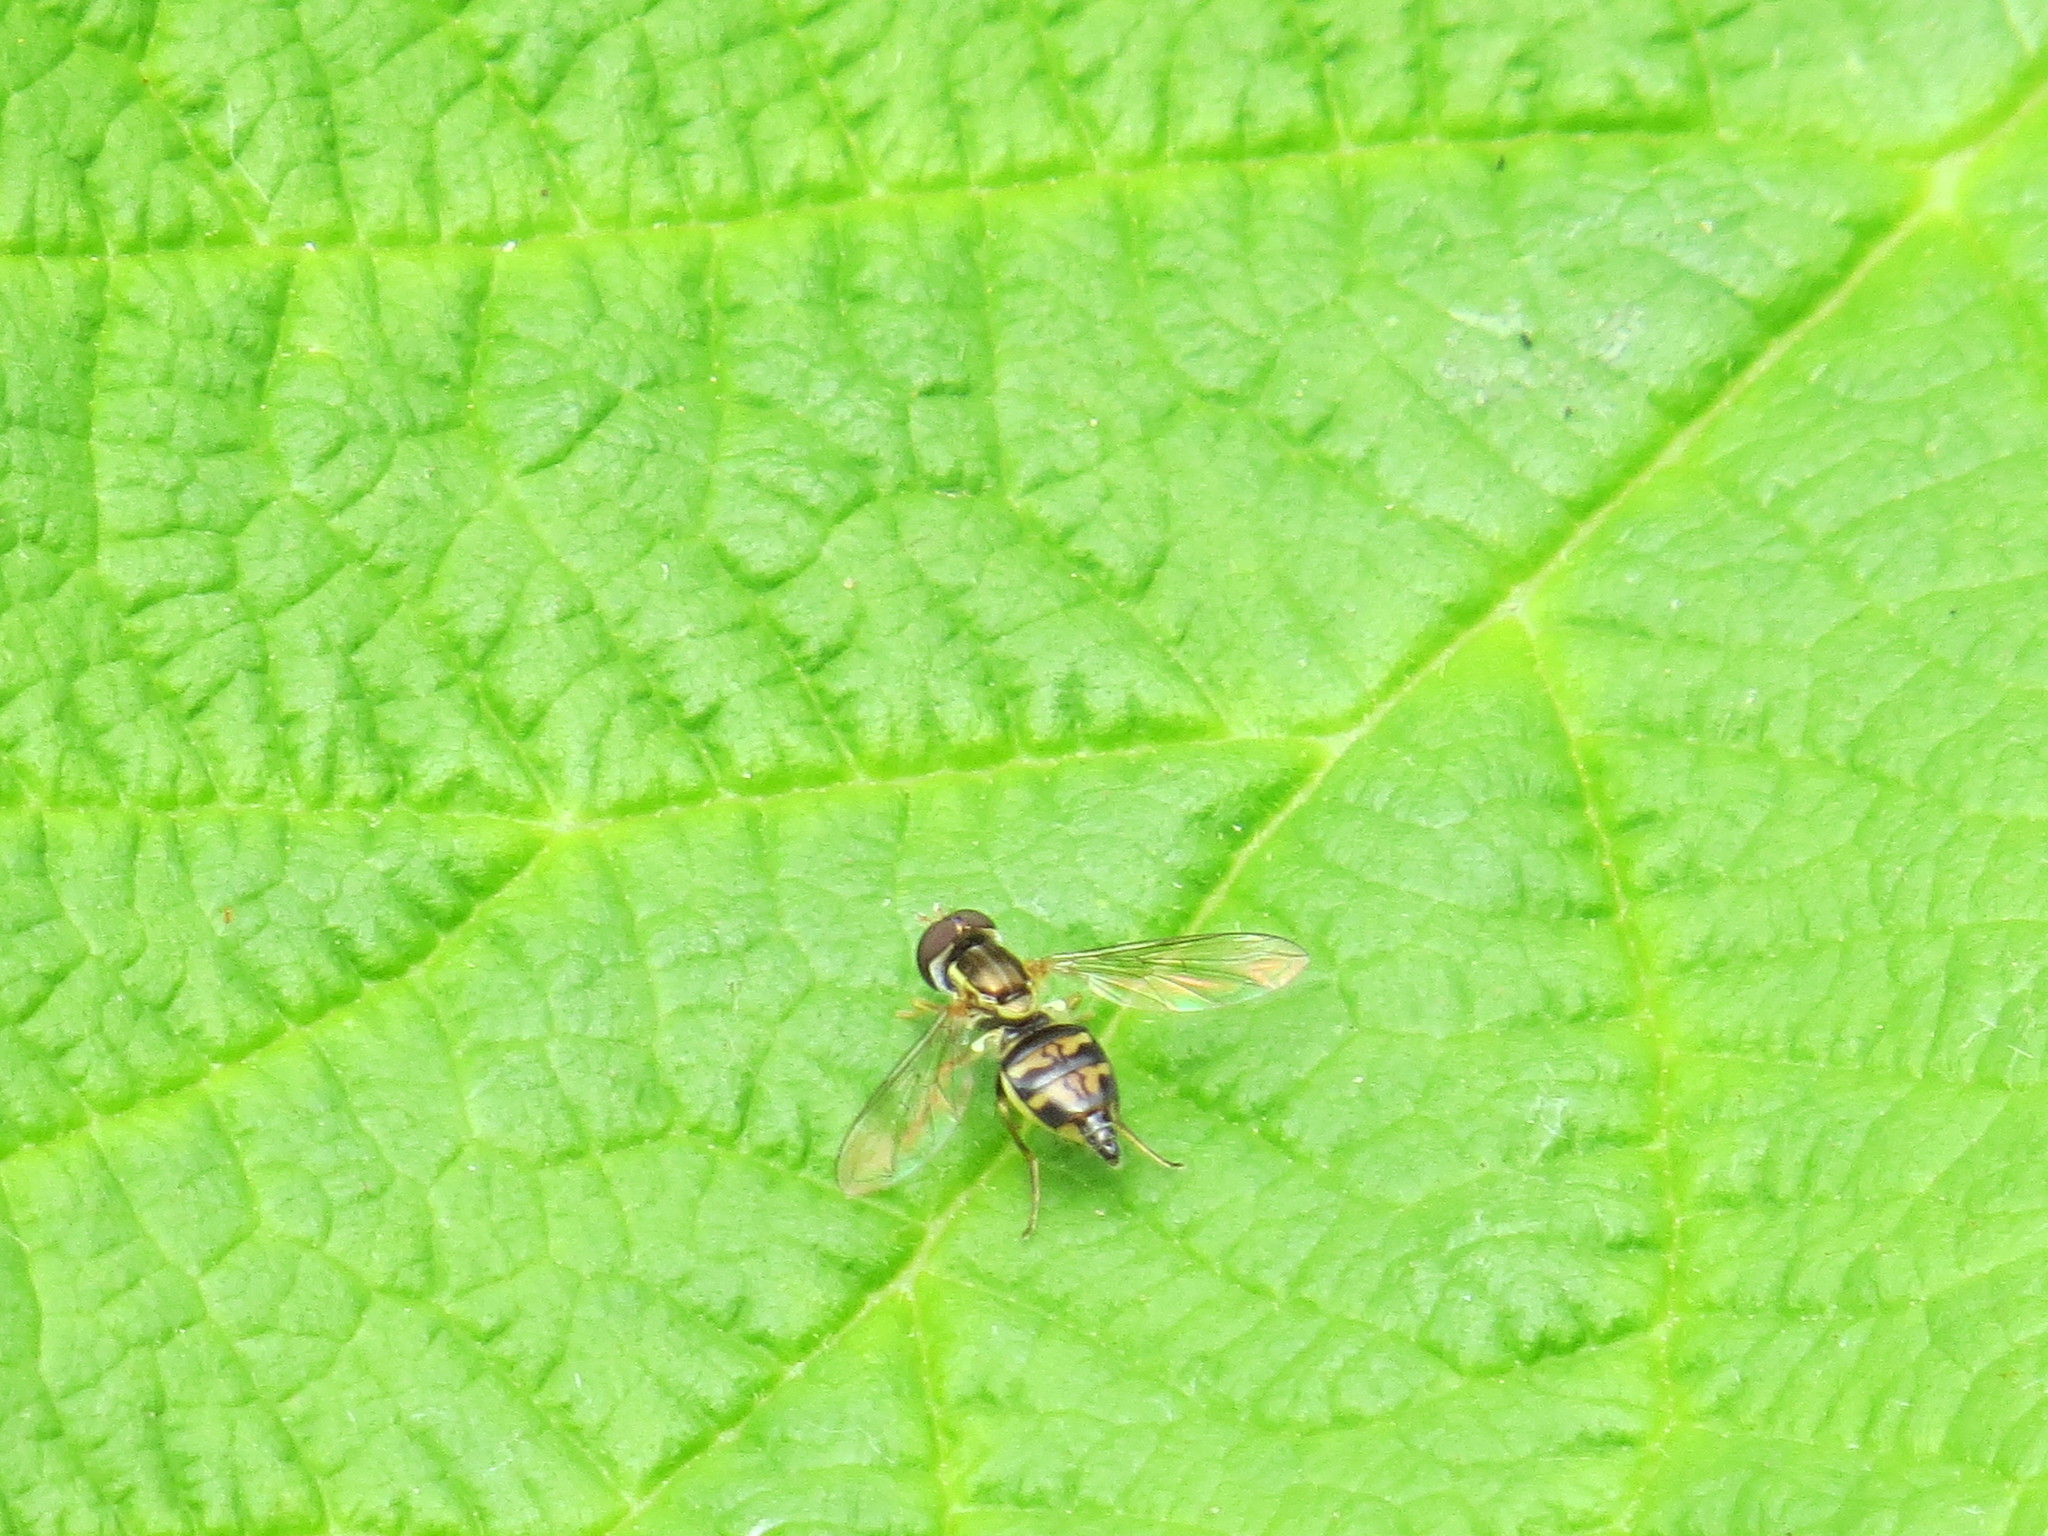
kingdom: Animalia
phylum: Arthropoda
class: Insecta
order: Diptera
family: Syrphidae
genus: Toxomerus
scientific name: Toxomerus occidentalis
